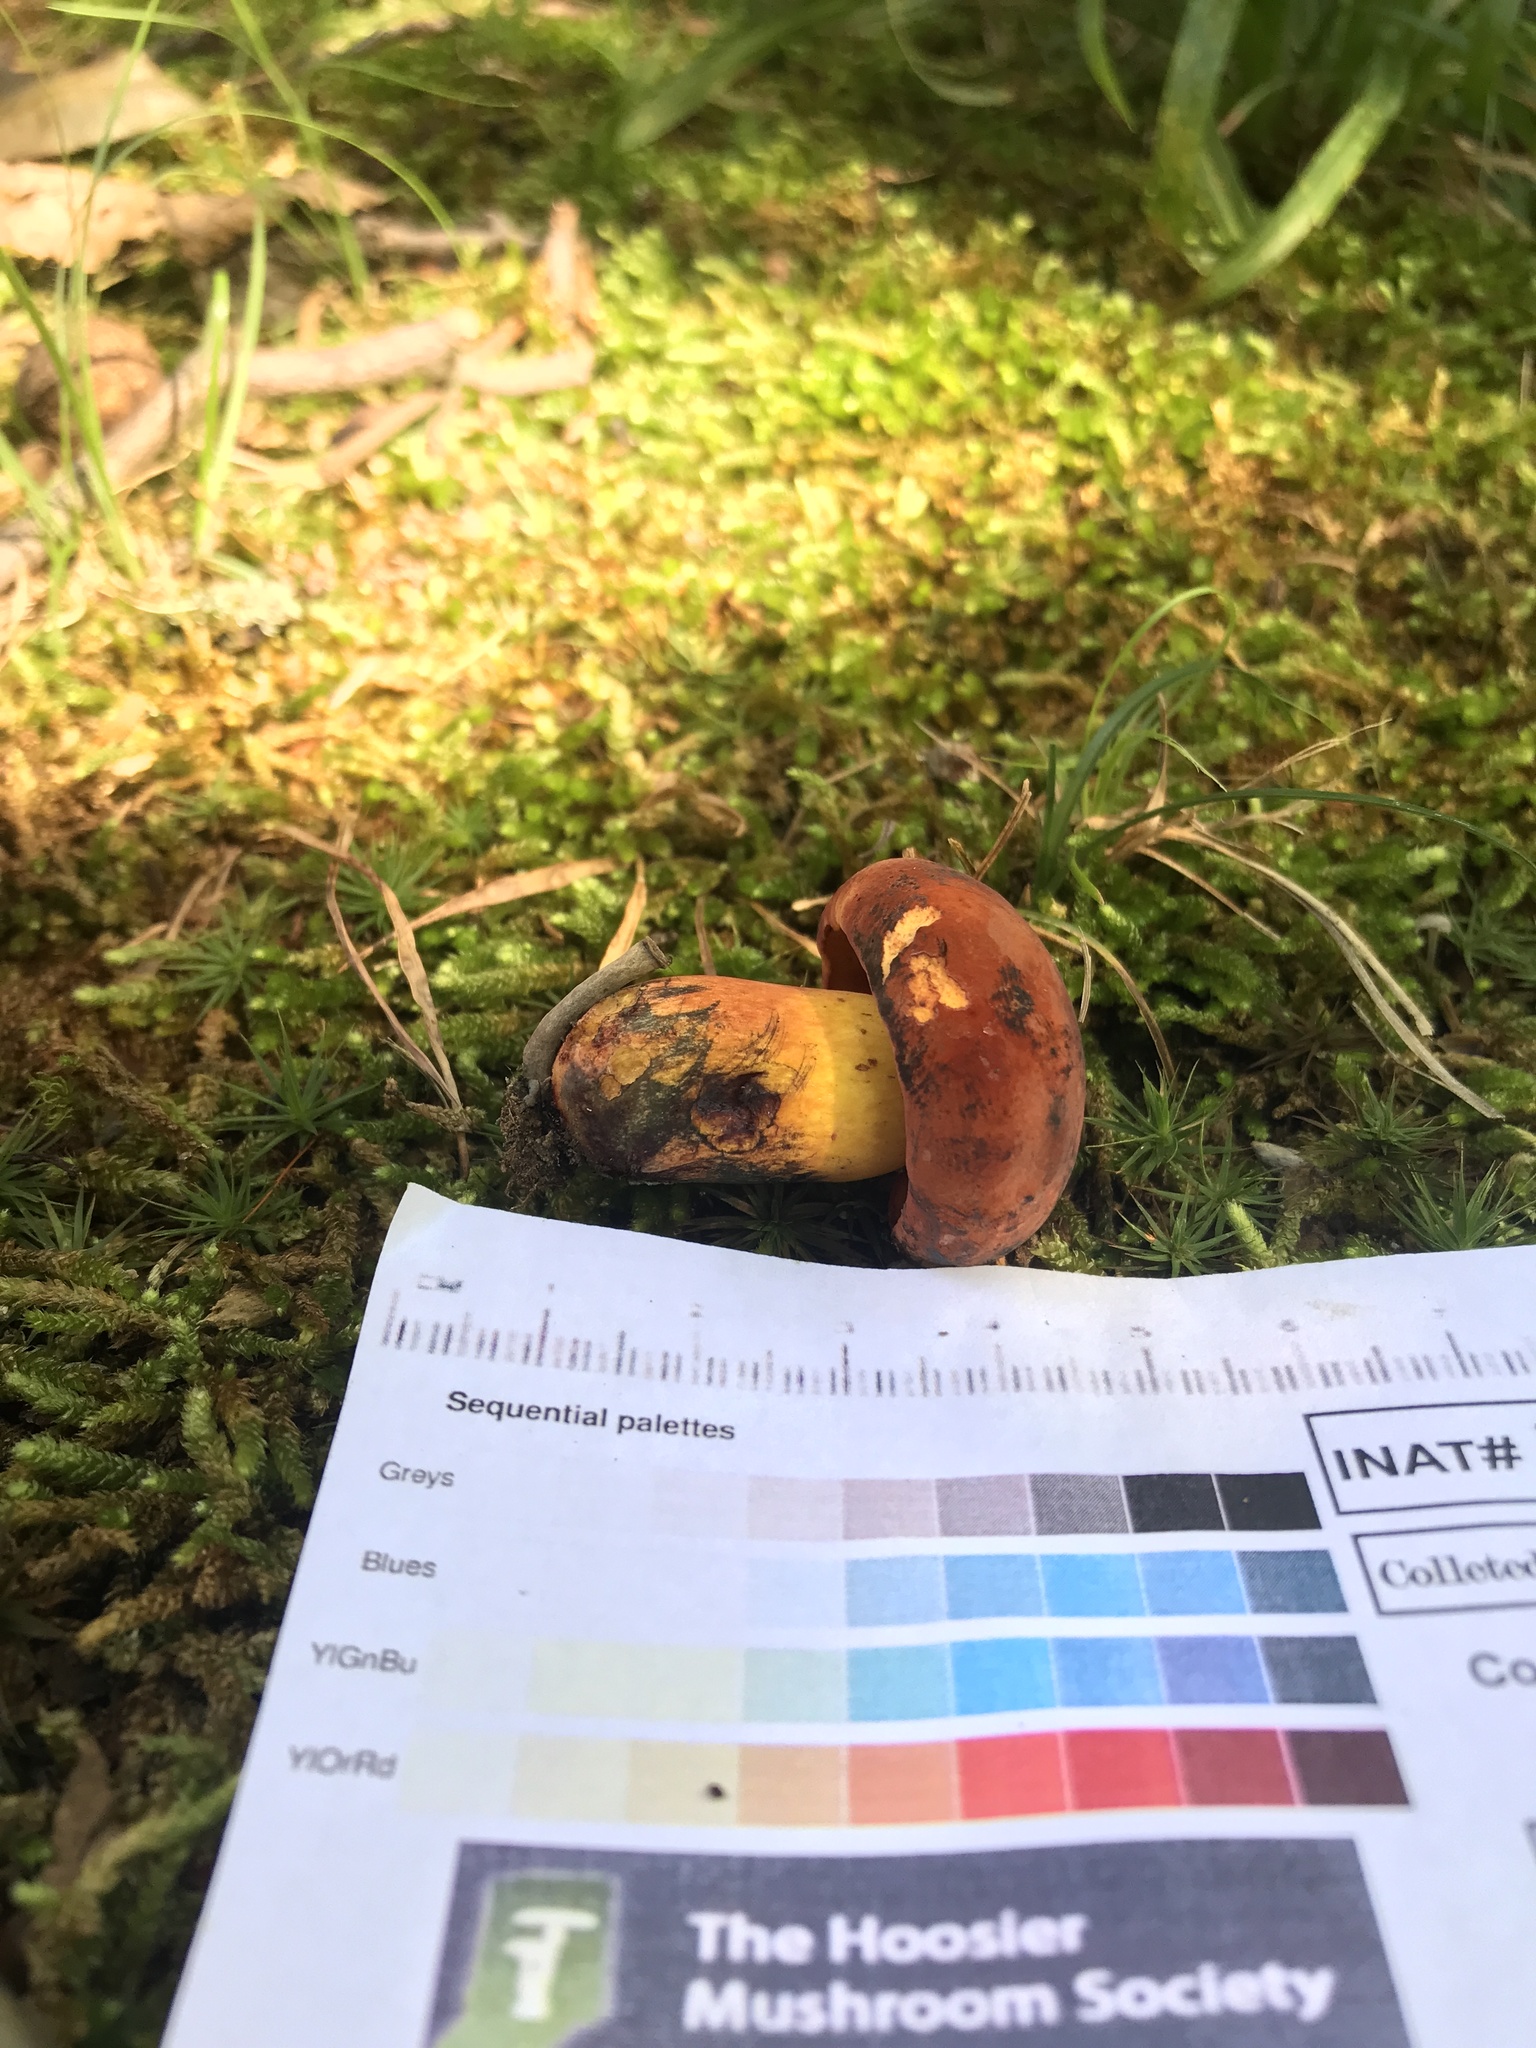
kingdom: Fungi
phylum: Basidiomycota
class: Agaricomycetes
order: Boletales
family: Boletaceae
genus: Boletus
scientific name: Boletus subvelutipes
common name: Red-mouth bolete
